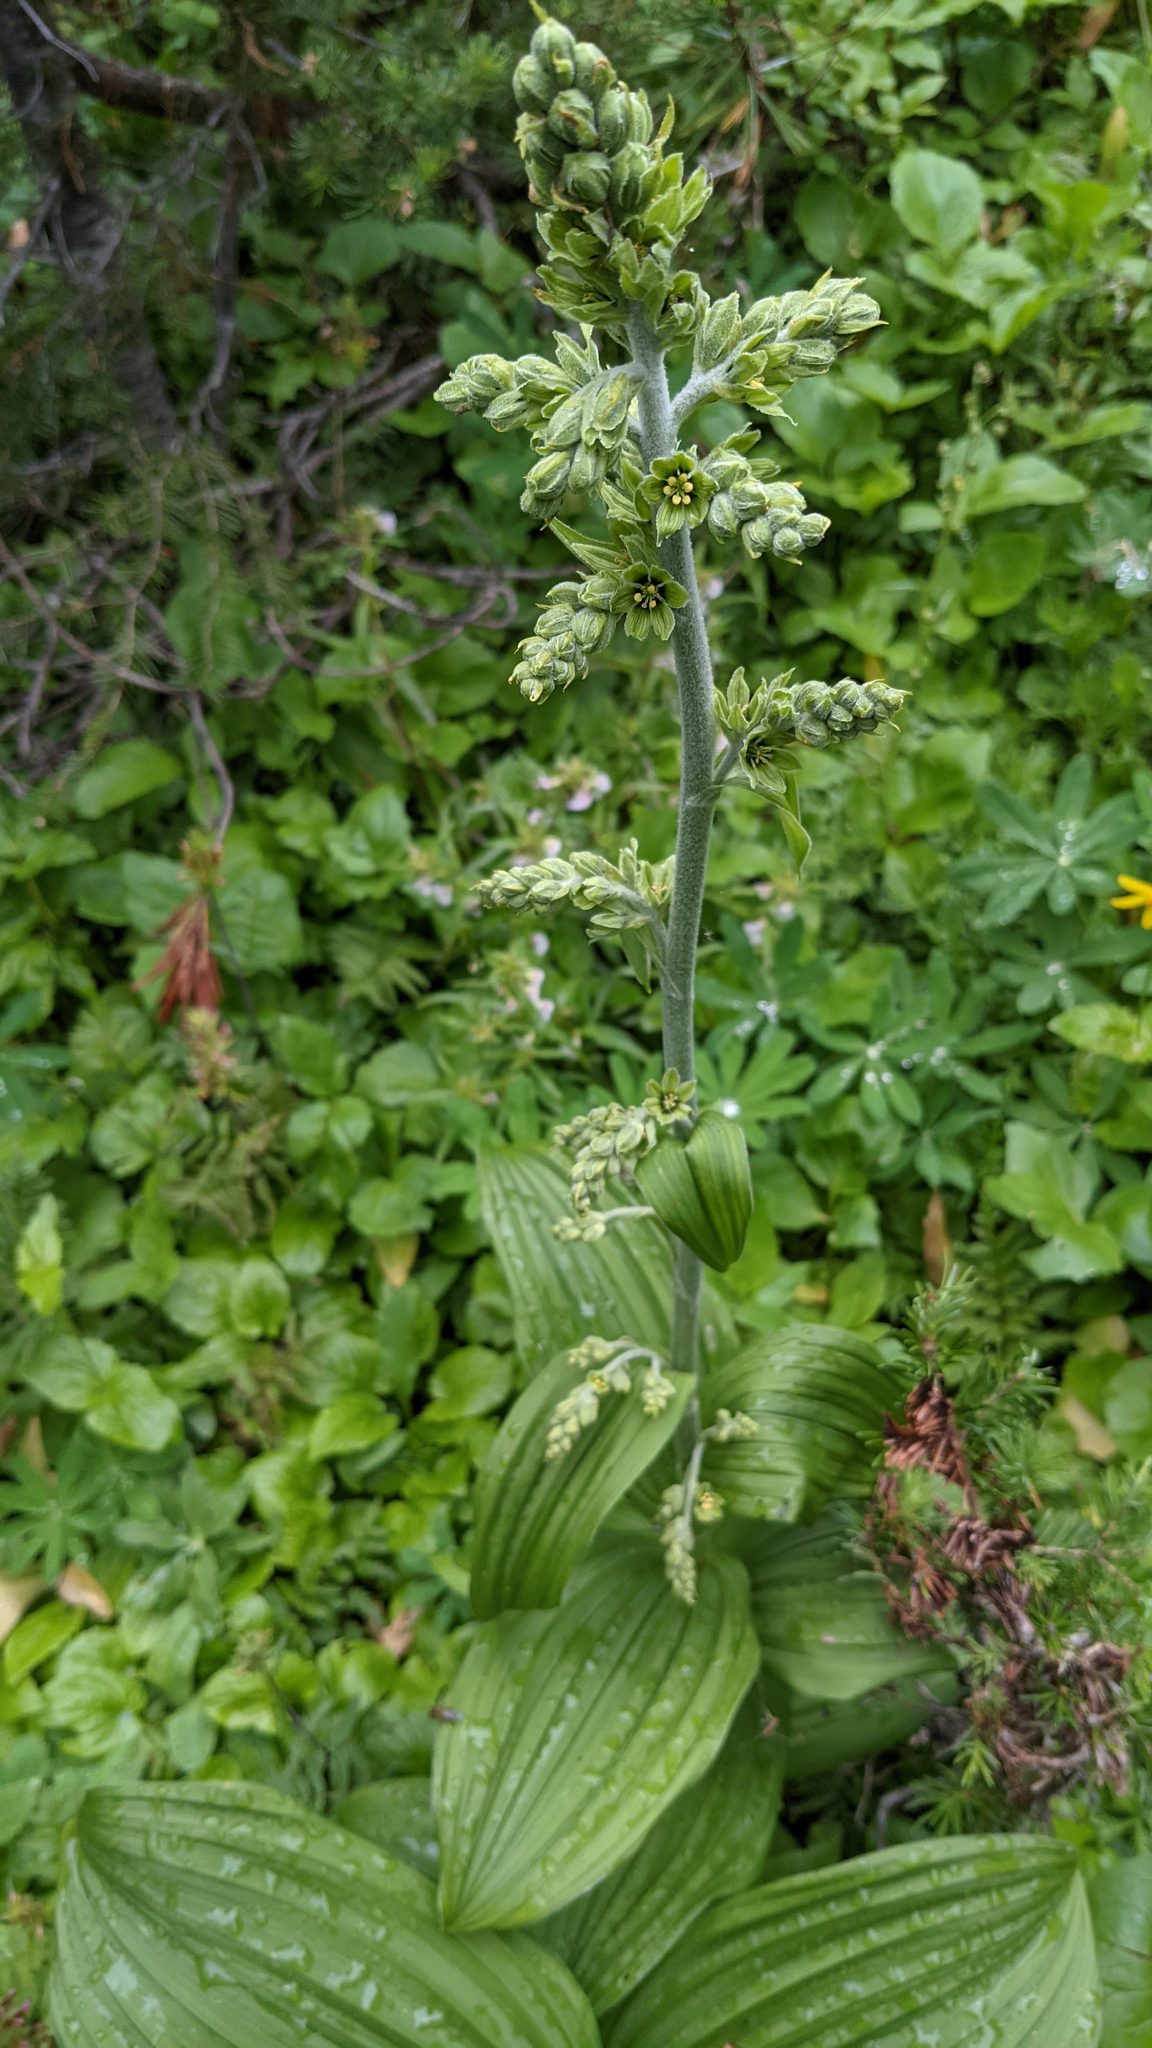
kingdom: Plantae
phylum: Tracheophyta
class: Liliopsida
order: Liliales
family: Melanthiaceae
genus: Veratrum
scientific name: Veratrum viride
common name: American false hellebore
